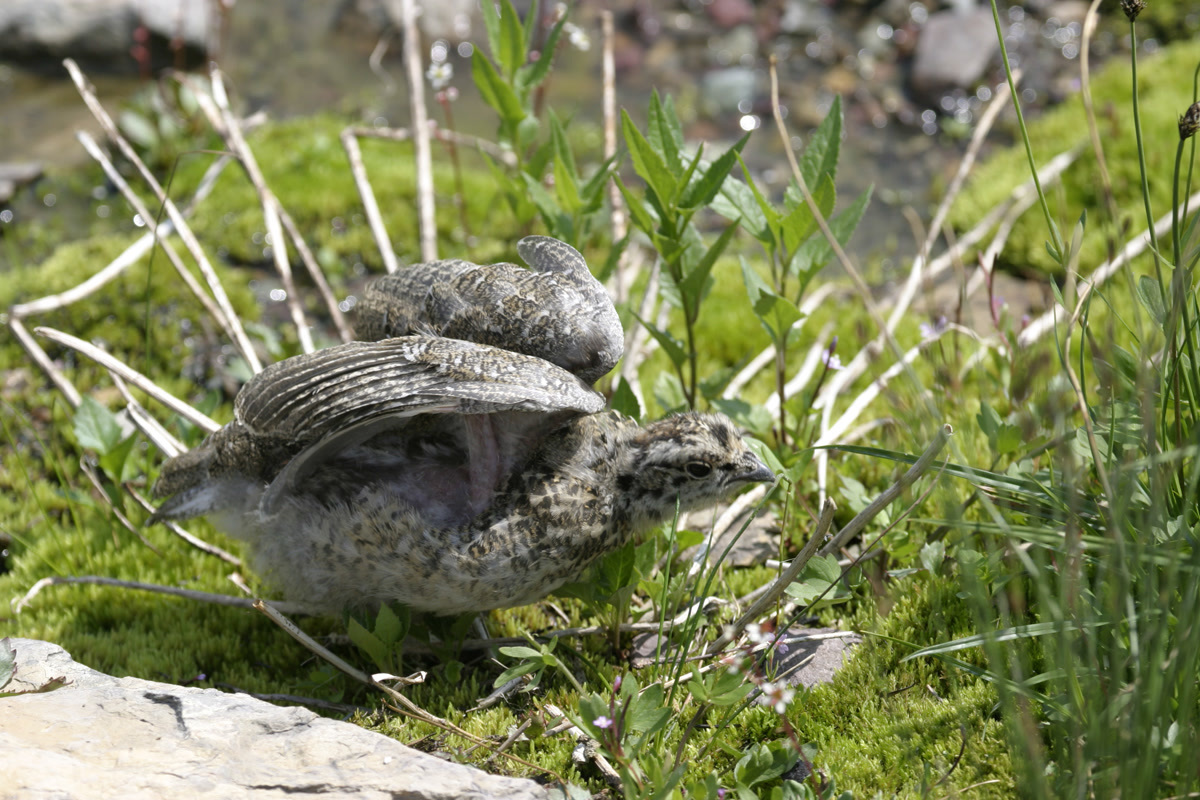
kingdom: Animalia
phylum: Chordata
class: Aves
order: Galliformes
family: Phasianidae
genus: Lagopus
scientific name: Lagopus leucura
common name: White-tailed ptarmigan
